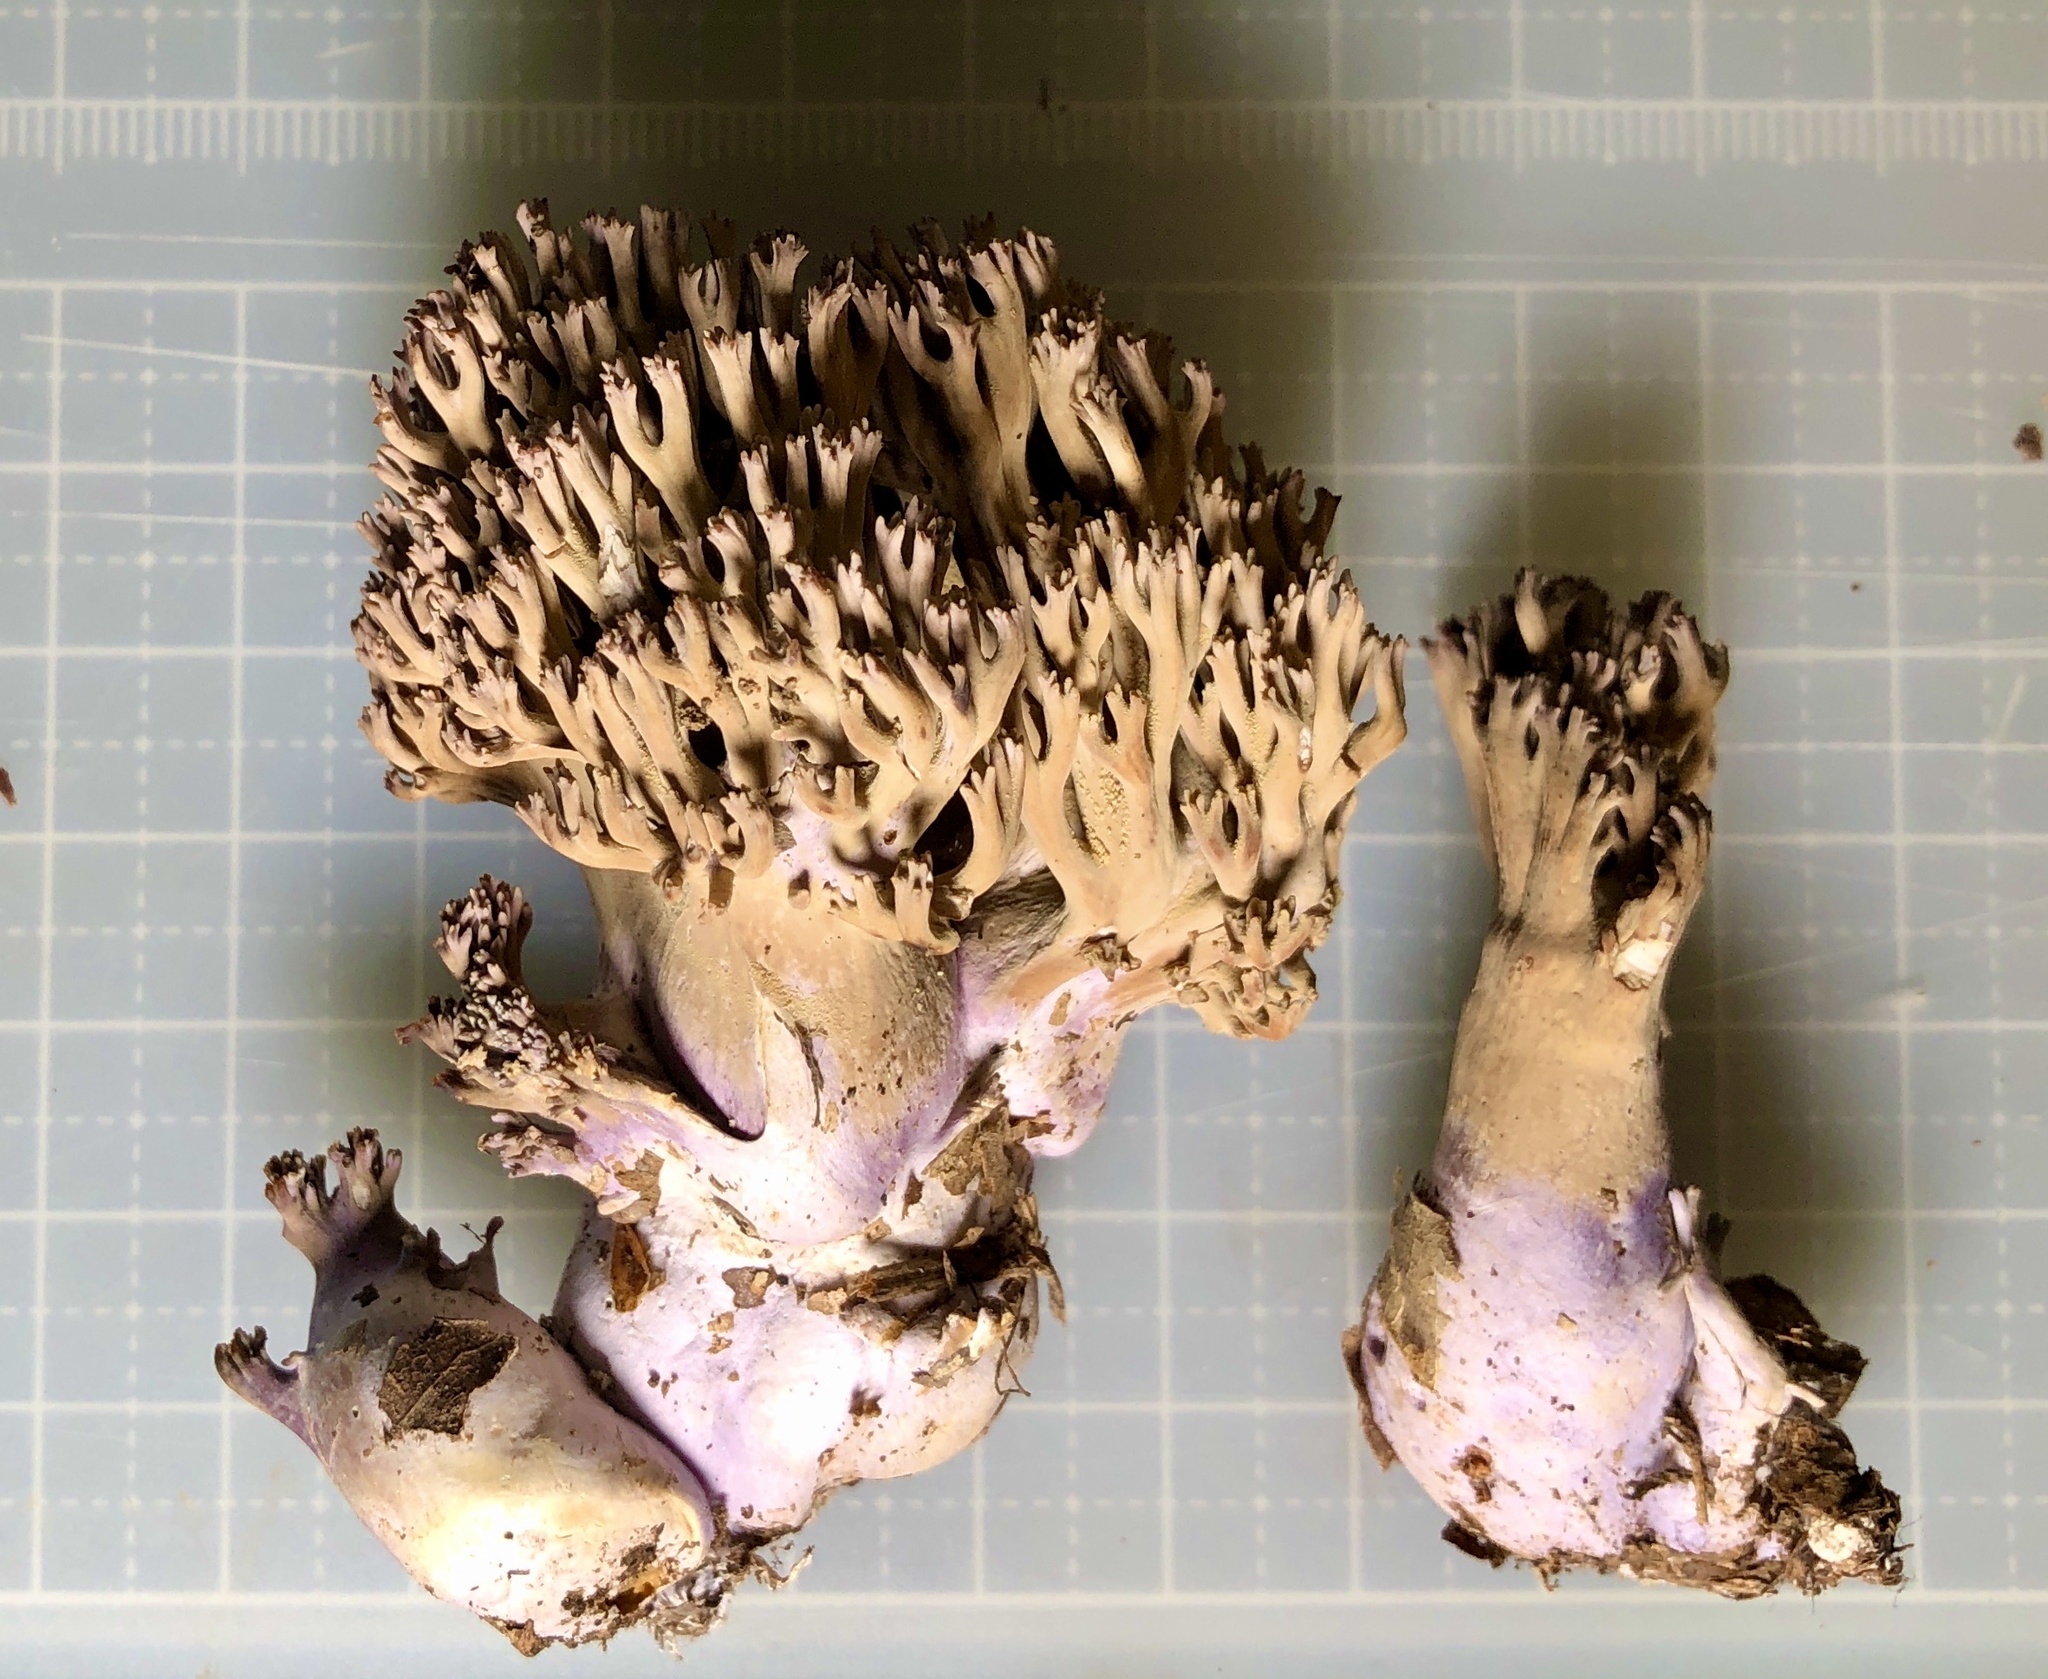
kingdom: Fungi
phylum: Basidiomycota
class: Agaricomycetes
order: Gomphales
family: Gomphaceae
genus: Ramaria
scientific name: Ramaria fennica
